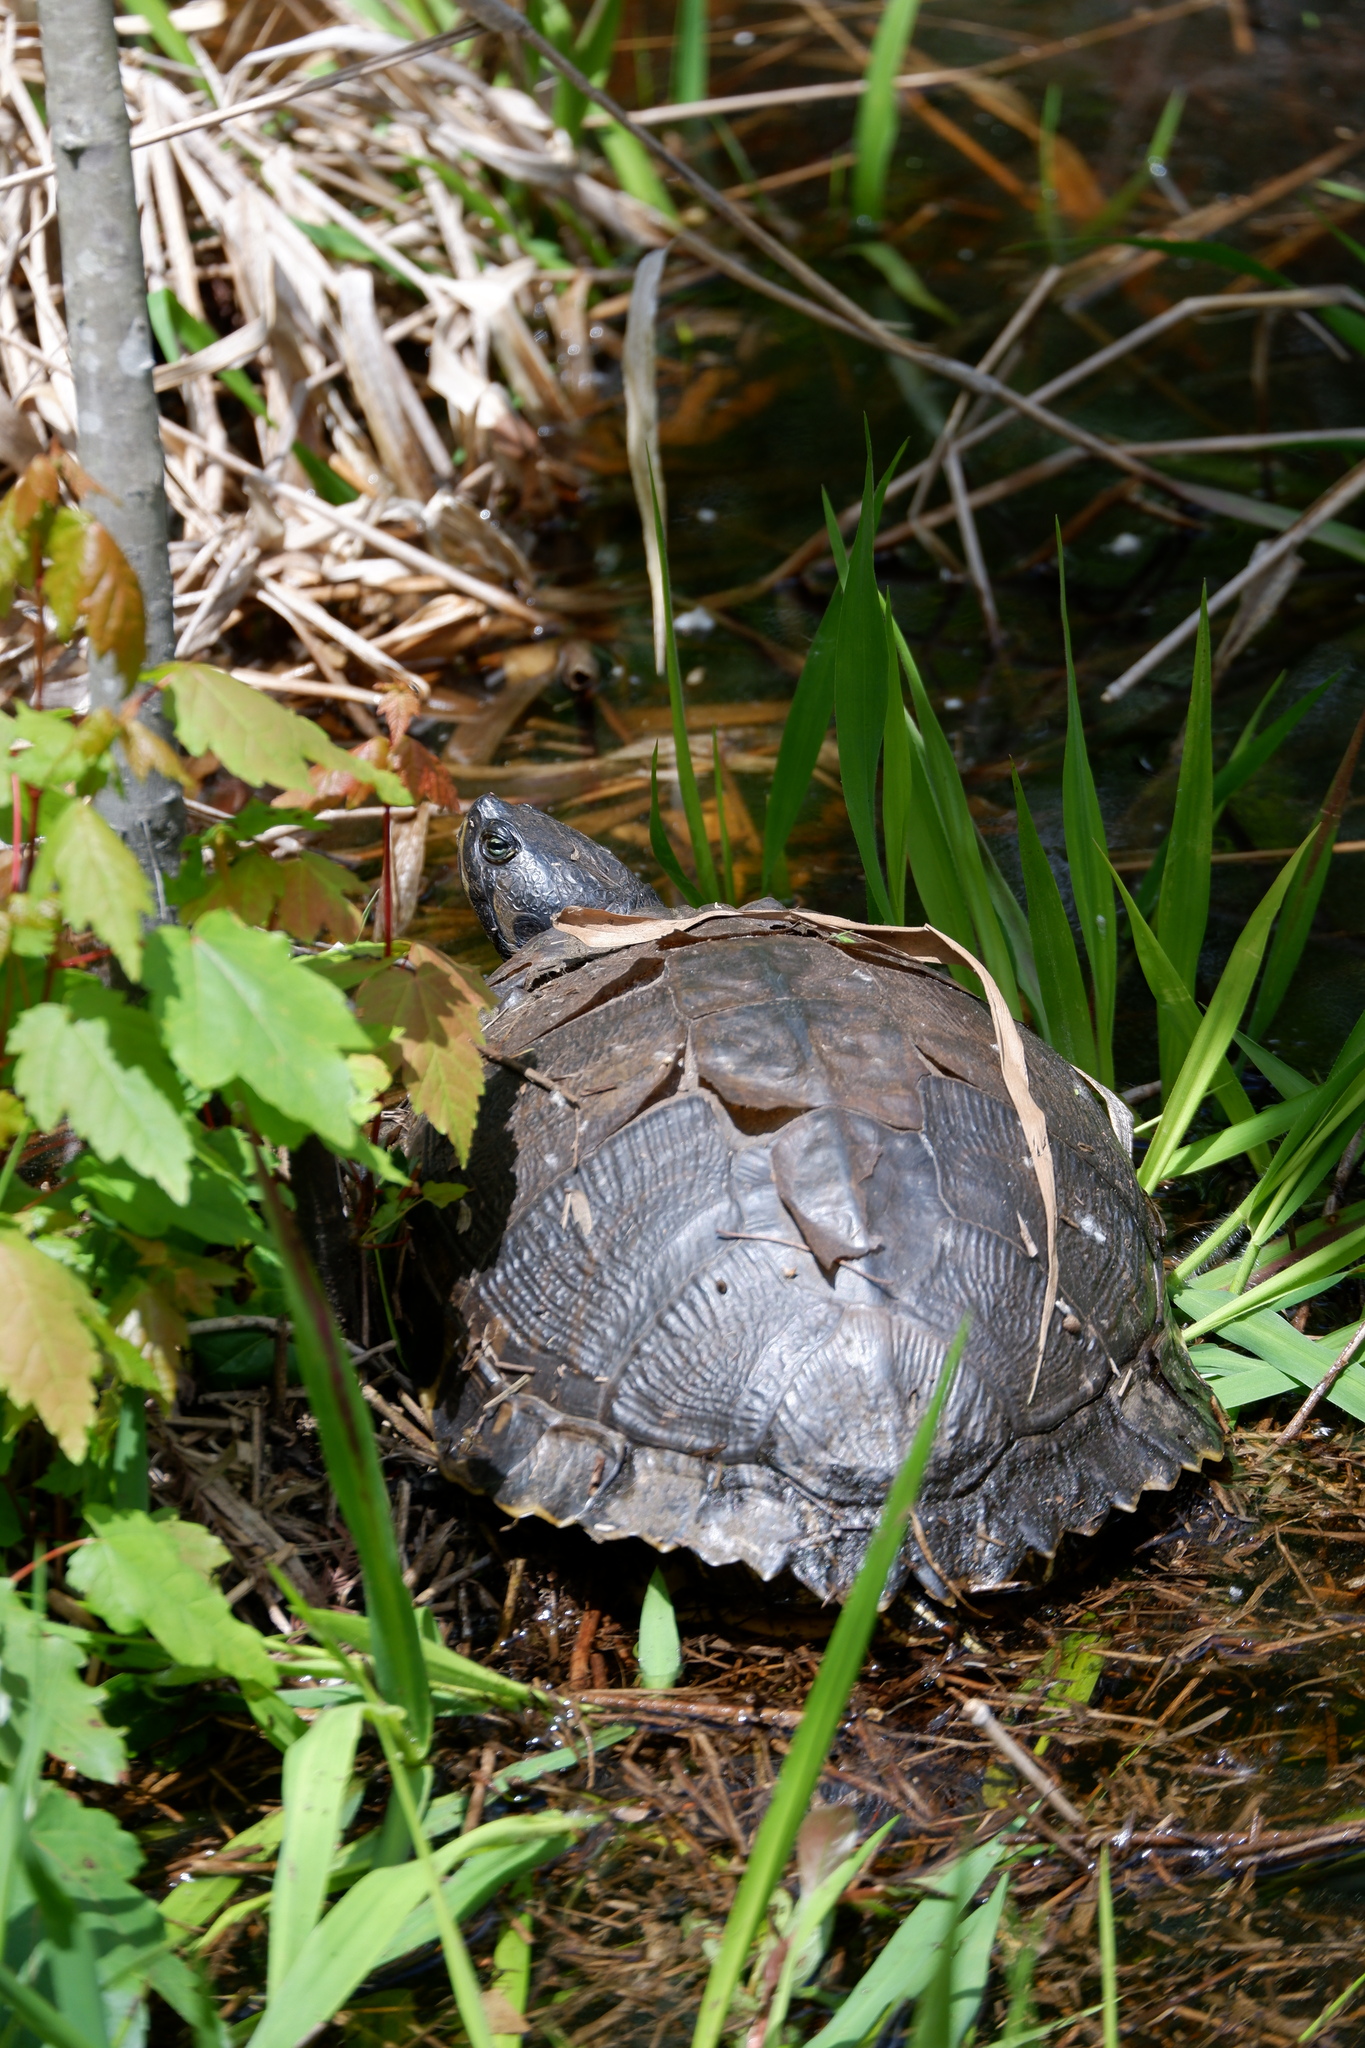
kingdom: Animalia
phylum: Chordata
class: Testudines
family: Emydidae
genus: Trachemys
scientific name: Trachemys scripta
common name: Slider
